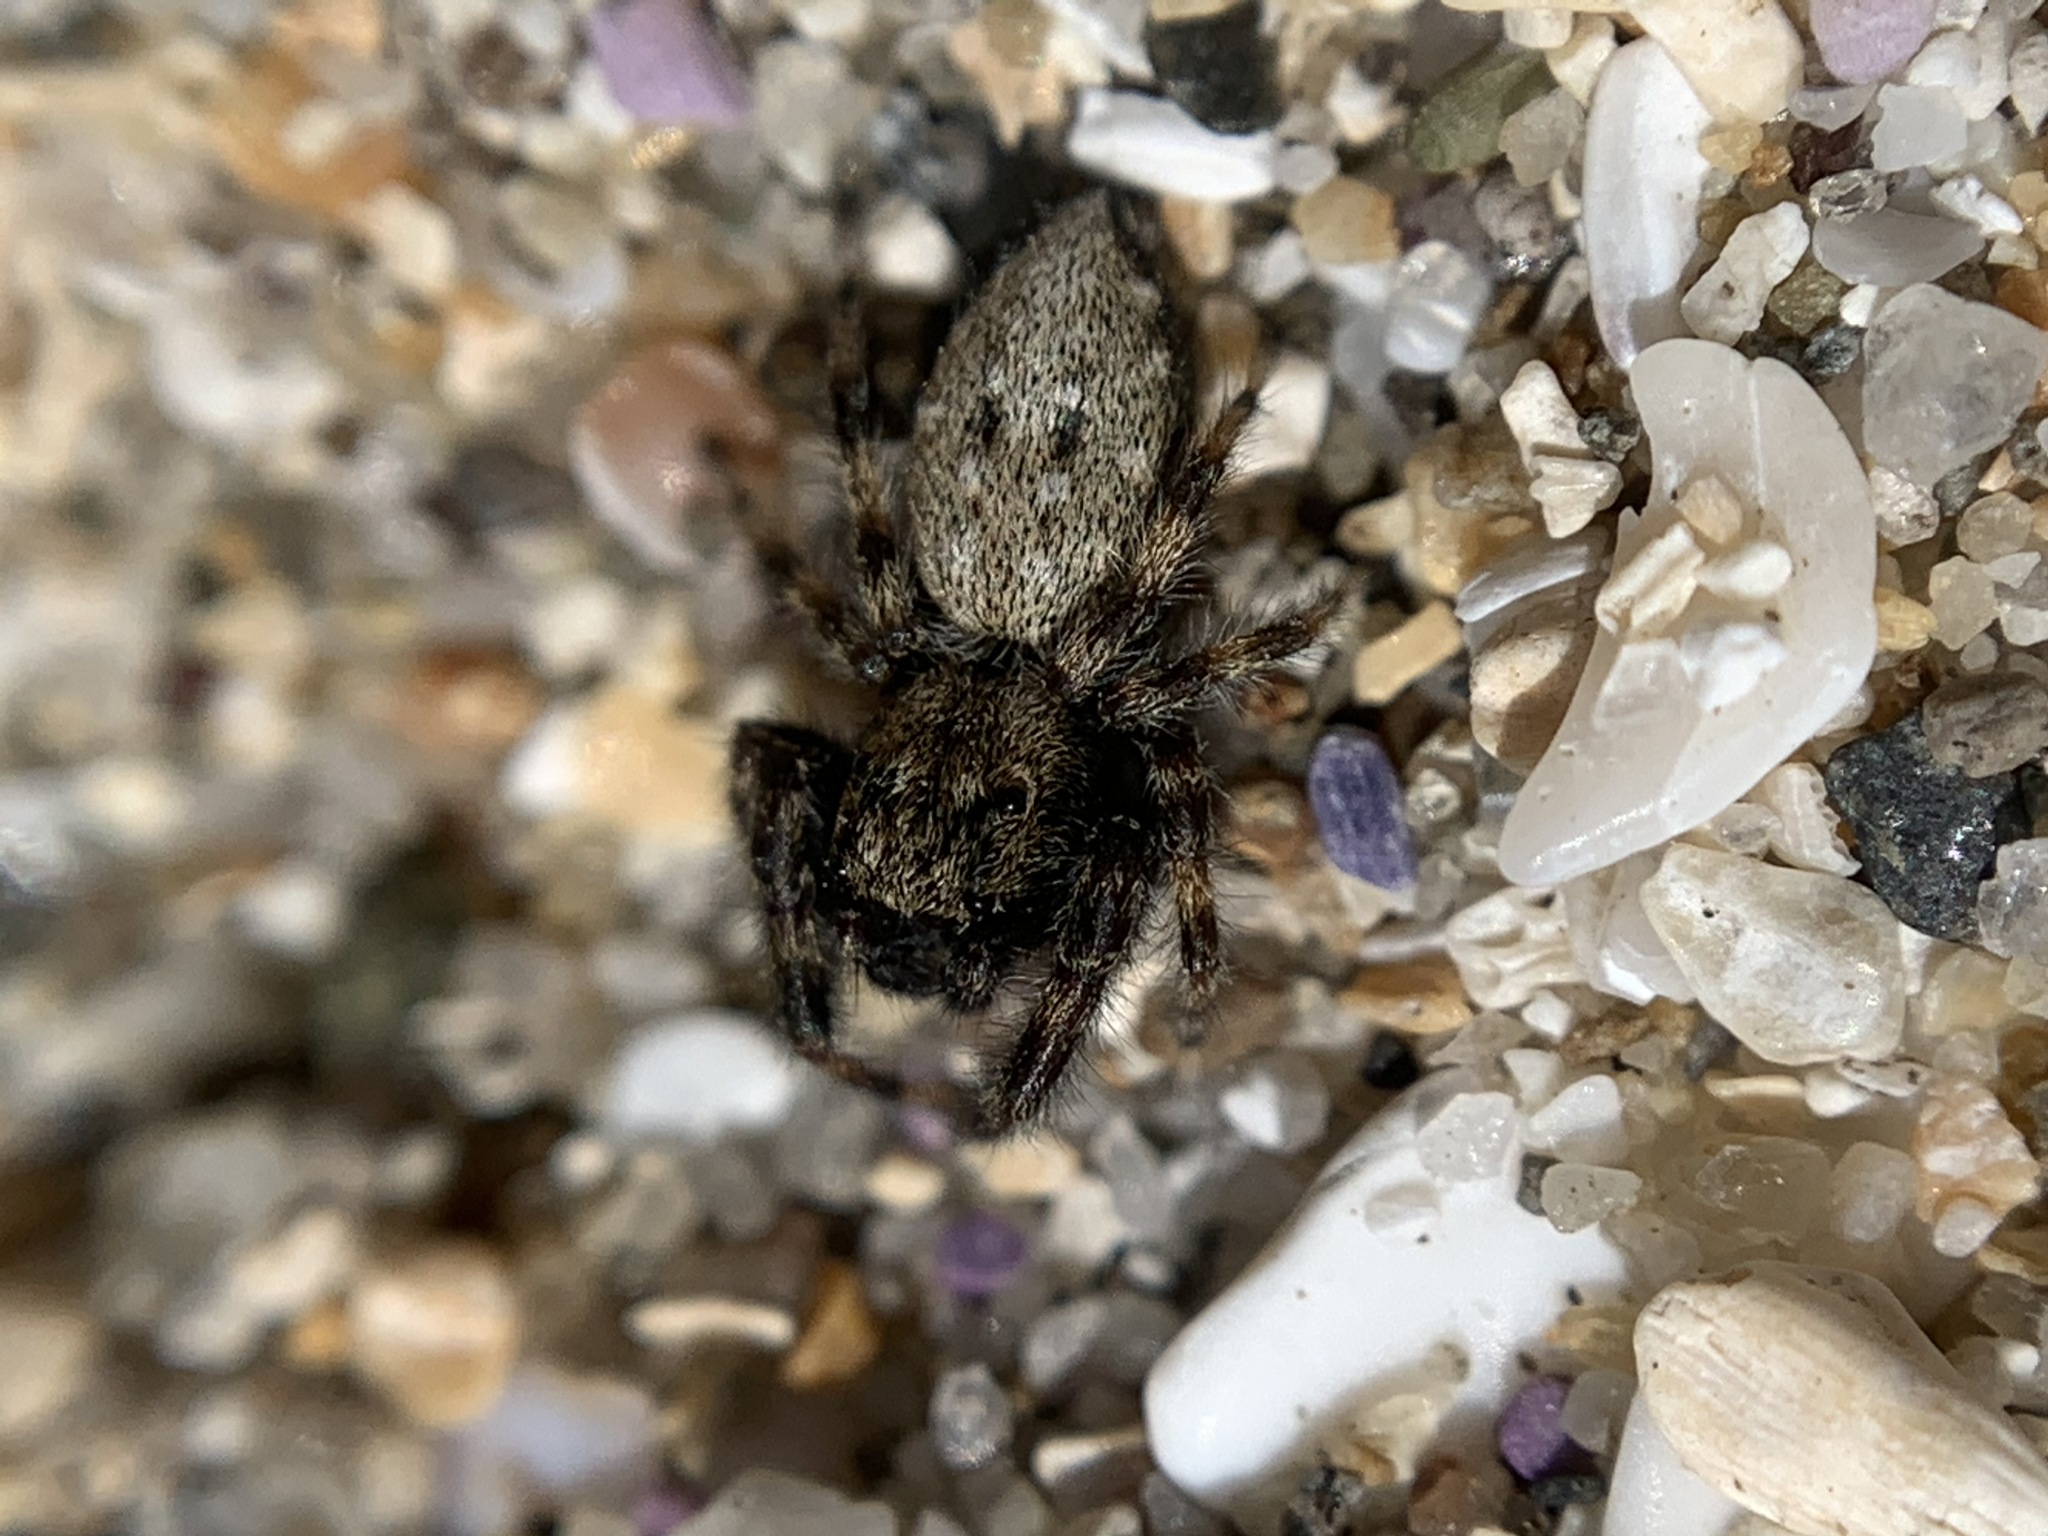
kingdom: Animalia
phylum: Arthropoda
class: Arachnida
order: Araneae
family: Salticidae
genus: Terralonus
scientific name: Terralonus californicus
